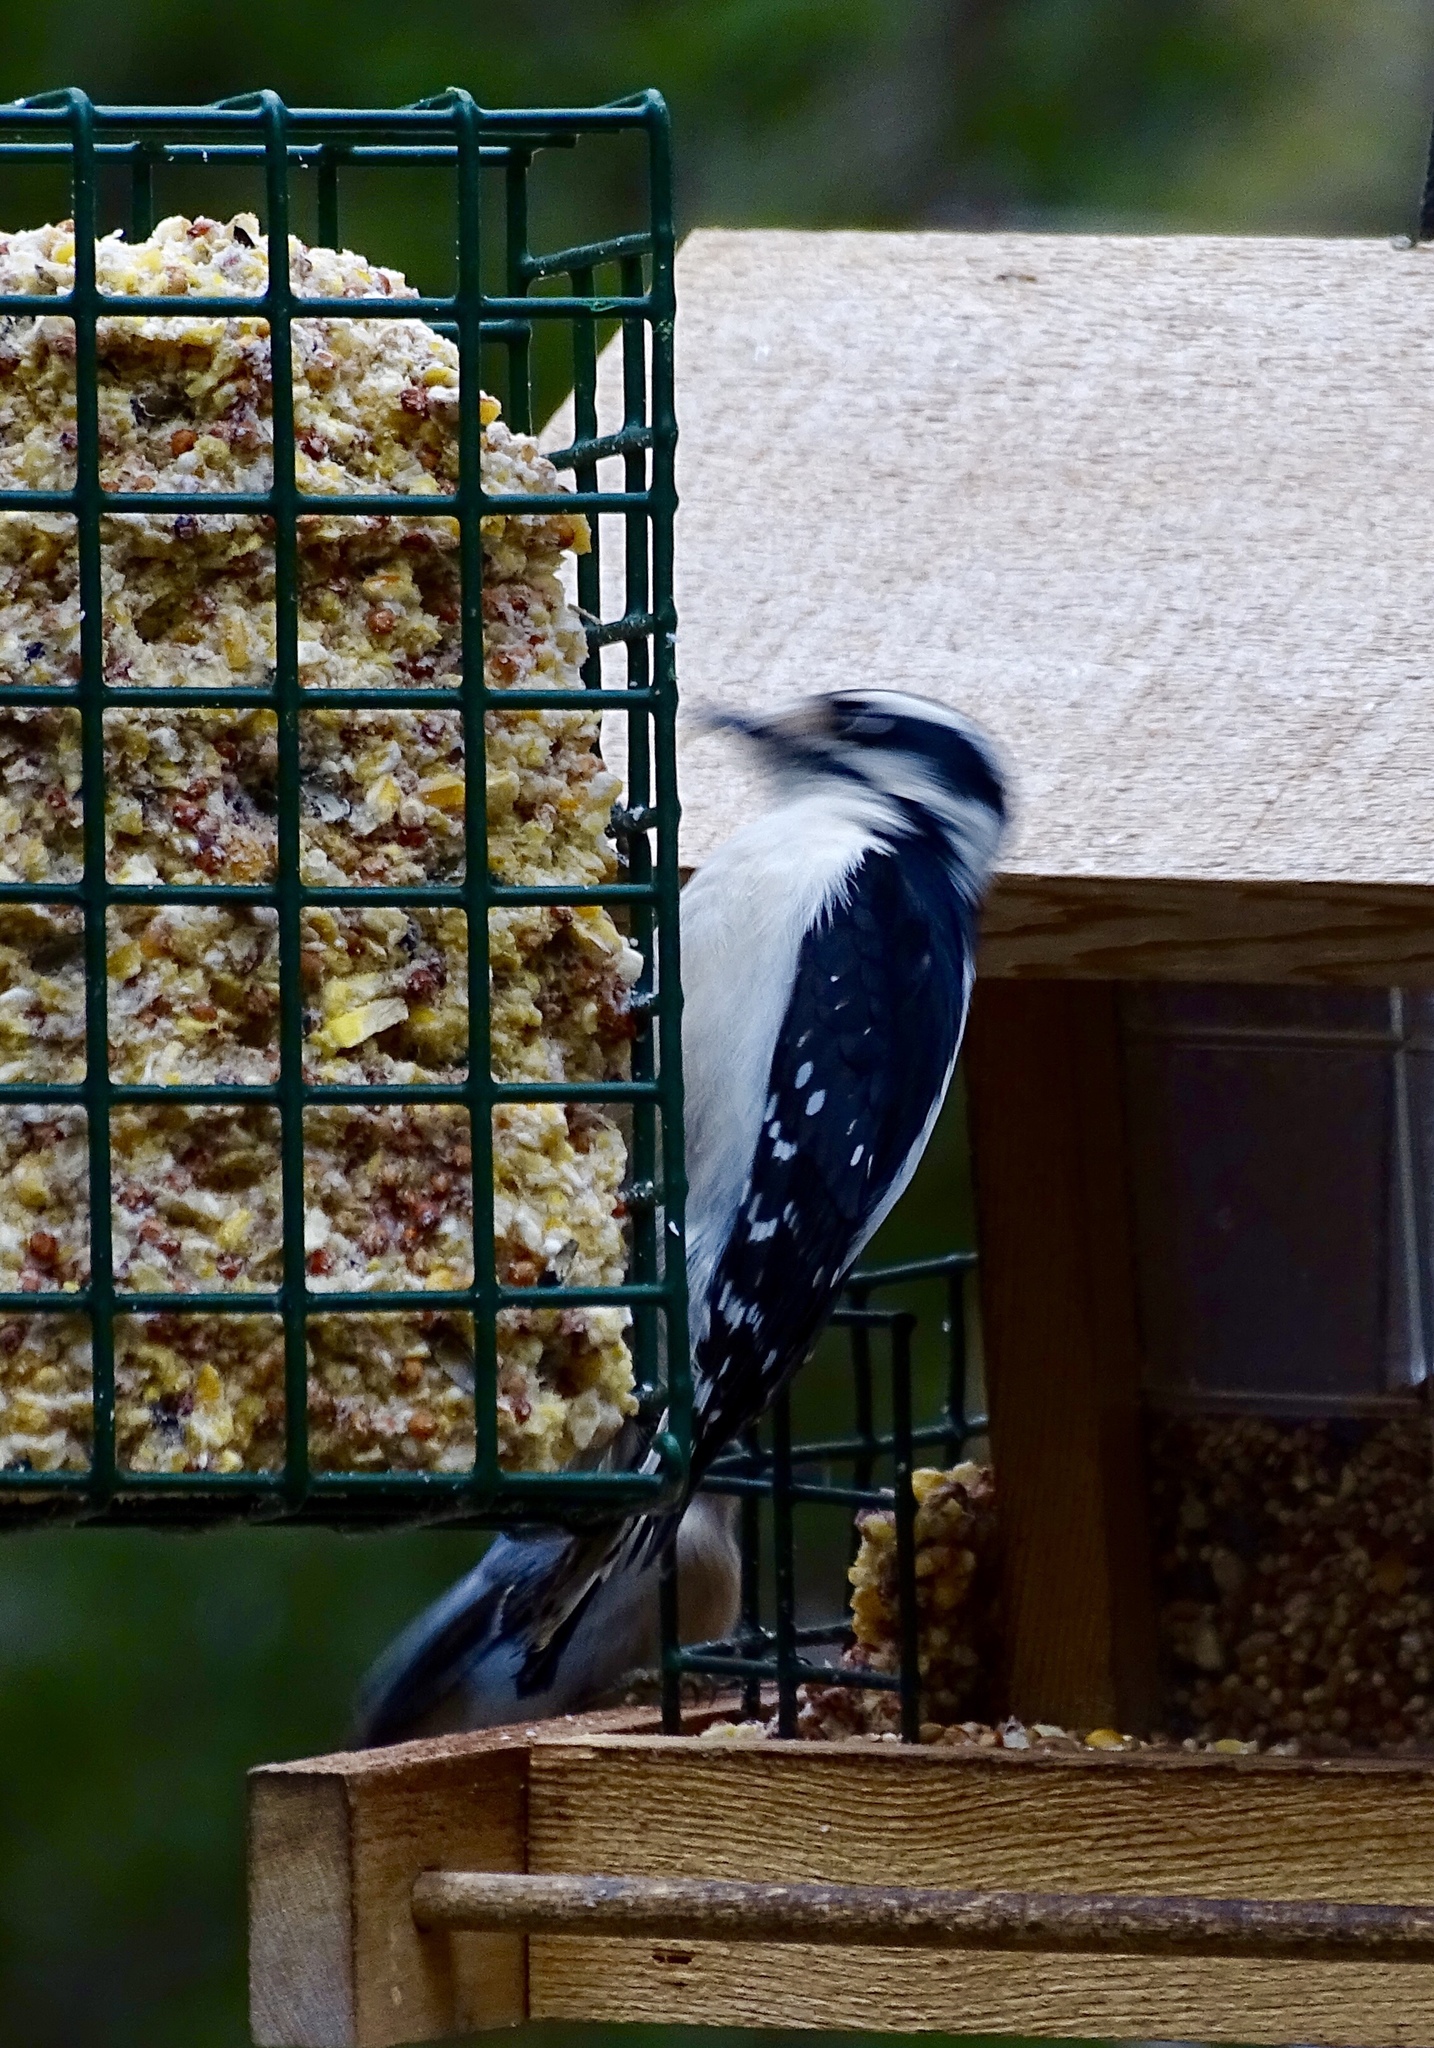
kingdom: Animalia
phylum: Chordata
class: Aves
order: Piciformes
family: Picidae
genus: Dryobates
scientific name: Dryobates pubescens
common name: Downy woodpecker
